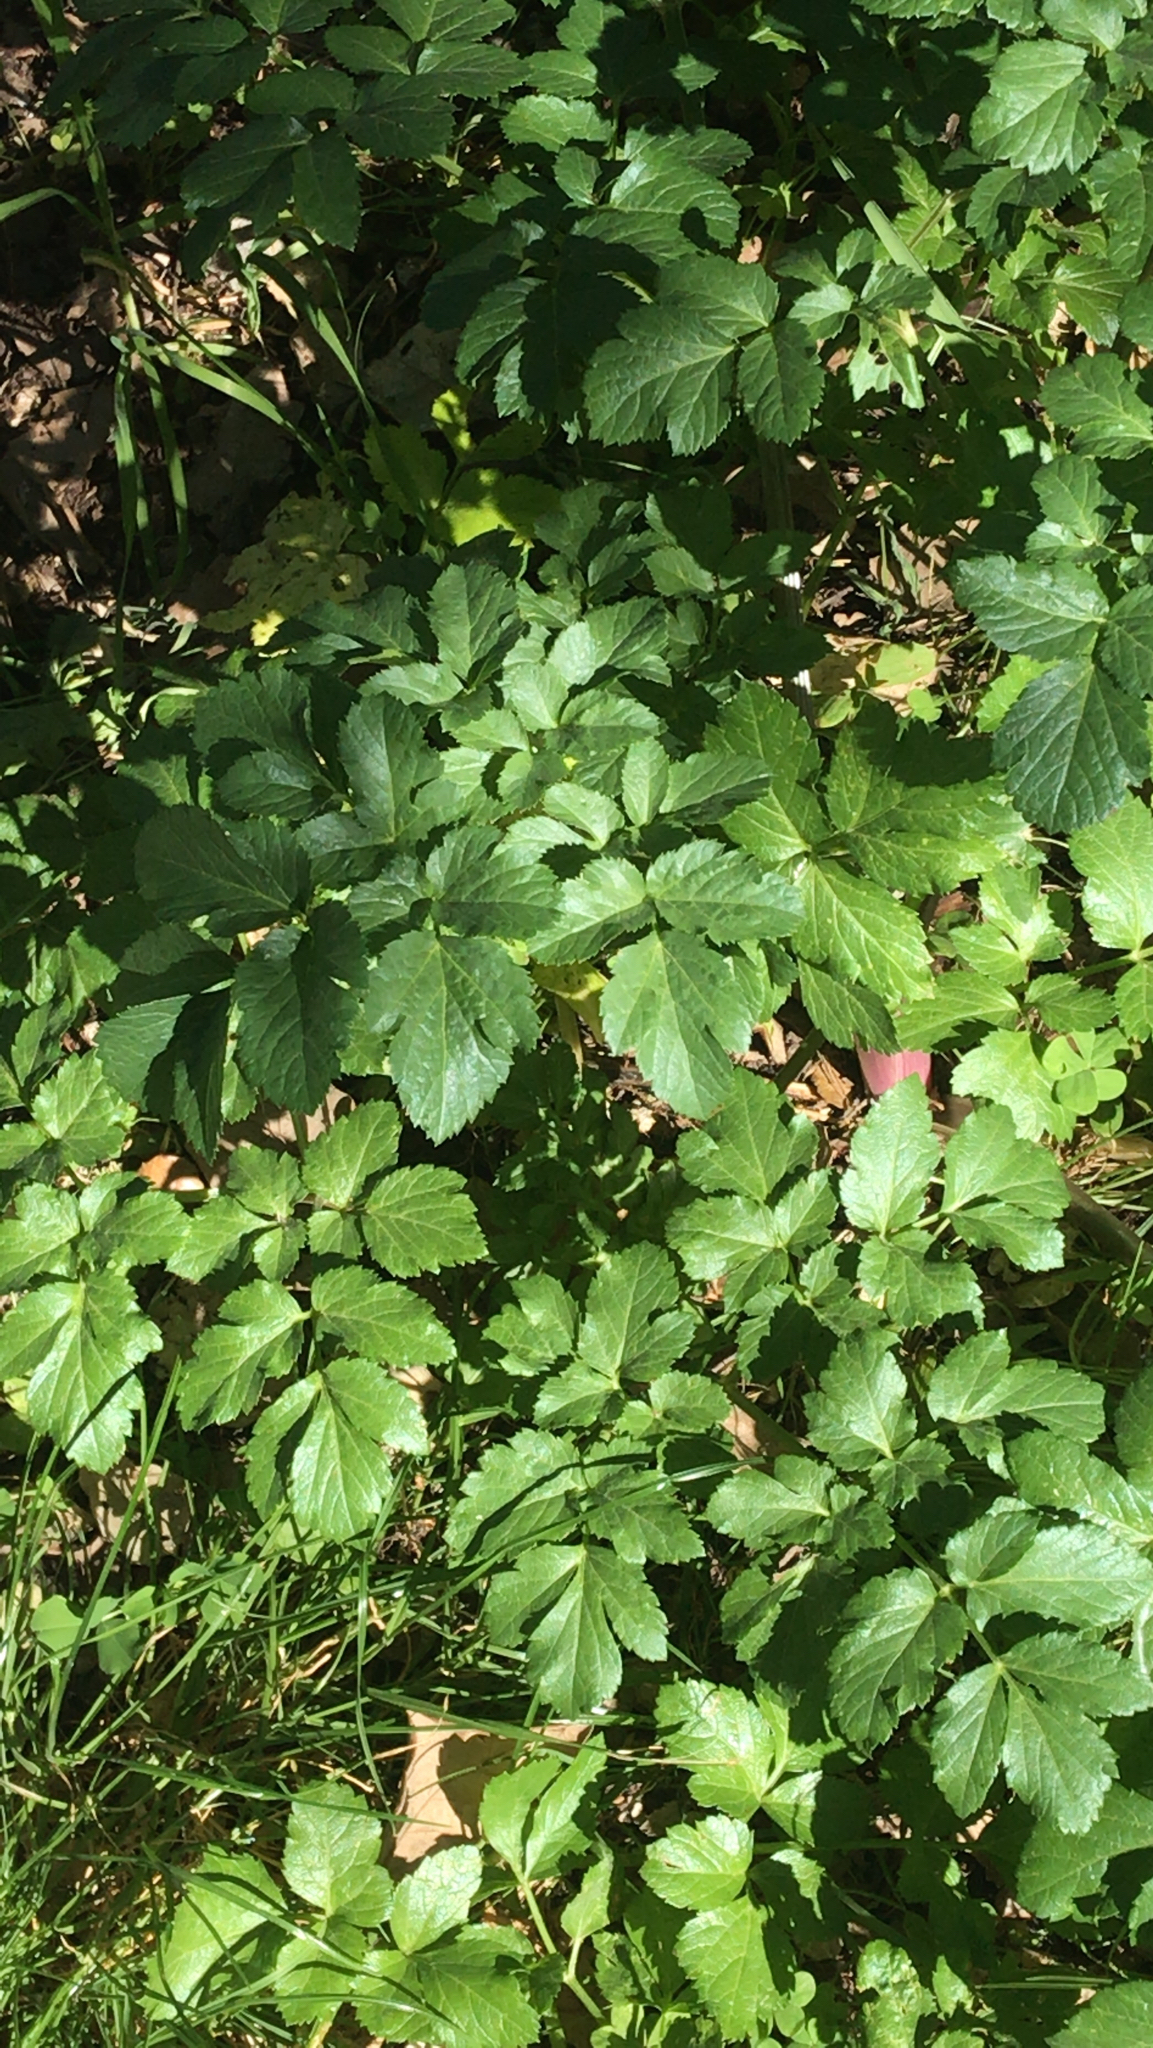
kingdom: Plantae
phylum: Tracheophyta
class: Magnoliopsida
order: Apiales
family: Apiaceae
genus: Smyrnium
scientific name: Smyrnium olusatrum
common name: Alexanders
